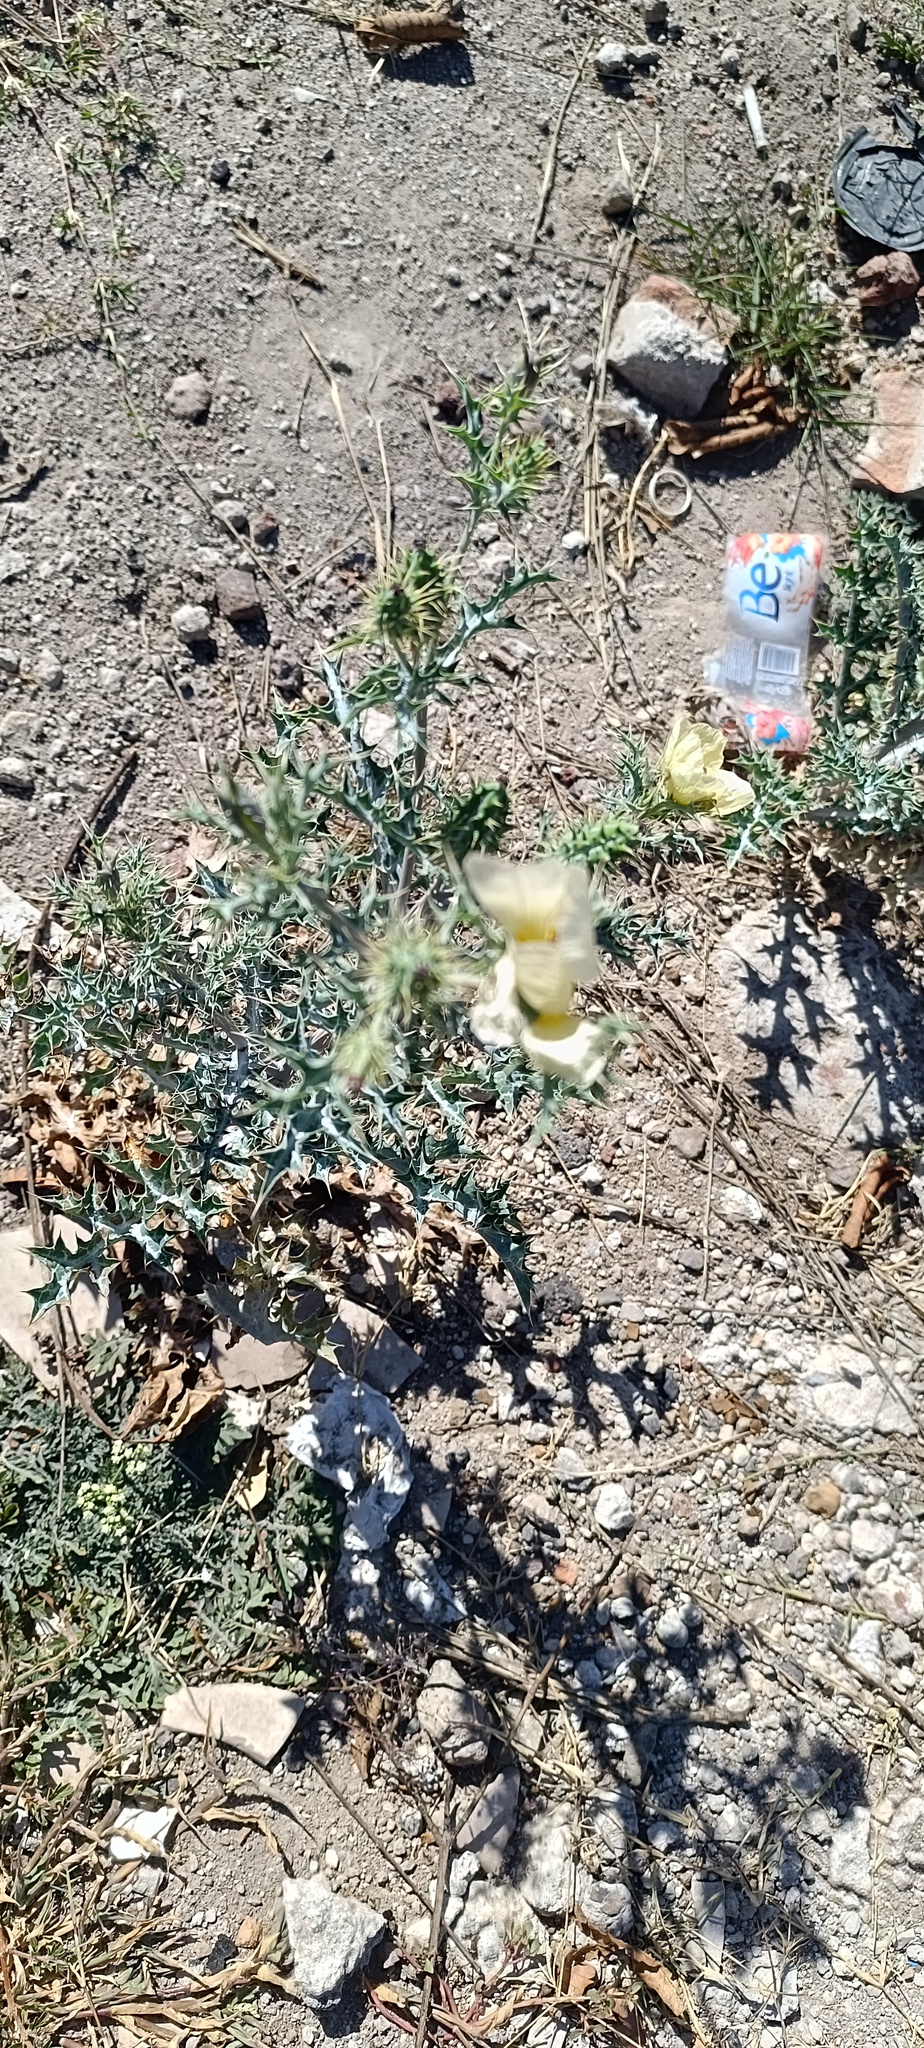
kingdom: Plantae
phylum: Tracheophyta
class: Magnoliopsida
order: Ranunculales
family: Papaveraceae
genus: Argemone
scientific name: Argemone ochroleuca
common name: White-flower mexican-poppy
